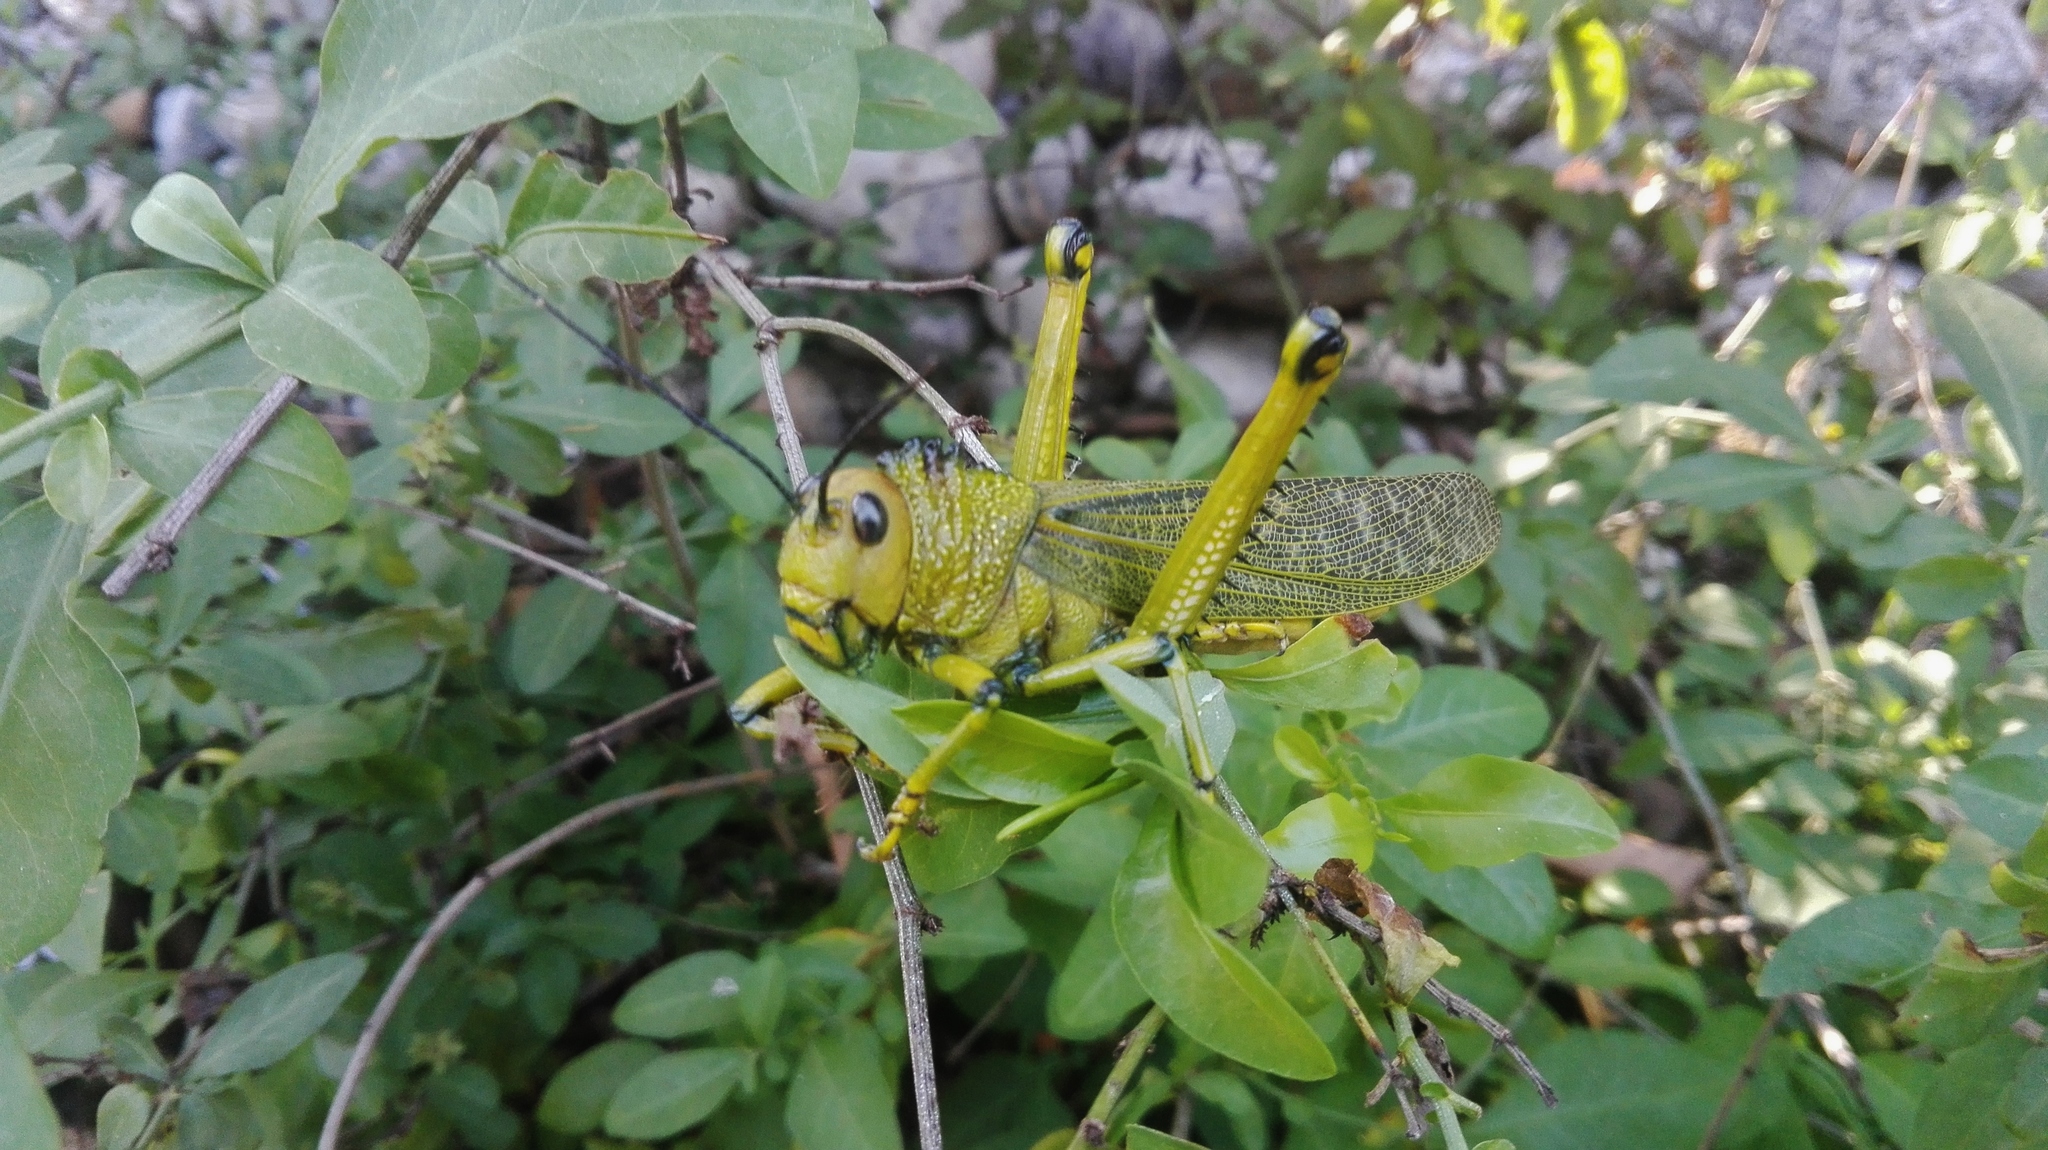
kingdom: Animalia
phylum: Arthropoda
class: Insecta
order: Orthoptera
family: Romaleidae
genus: Tropidacris
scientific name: Tropidacris cristata
